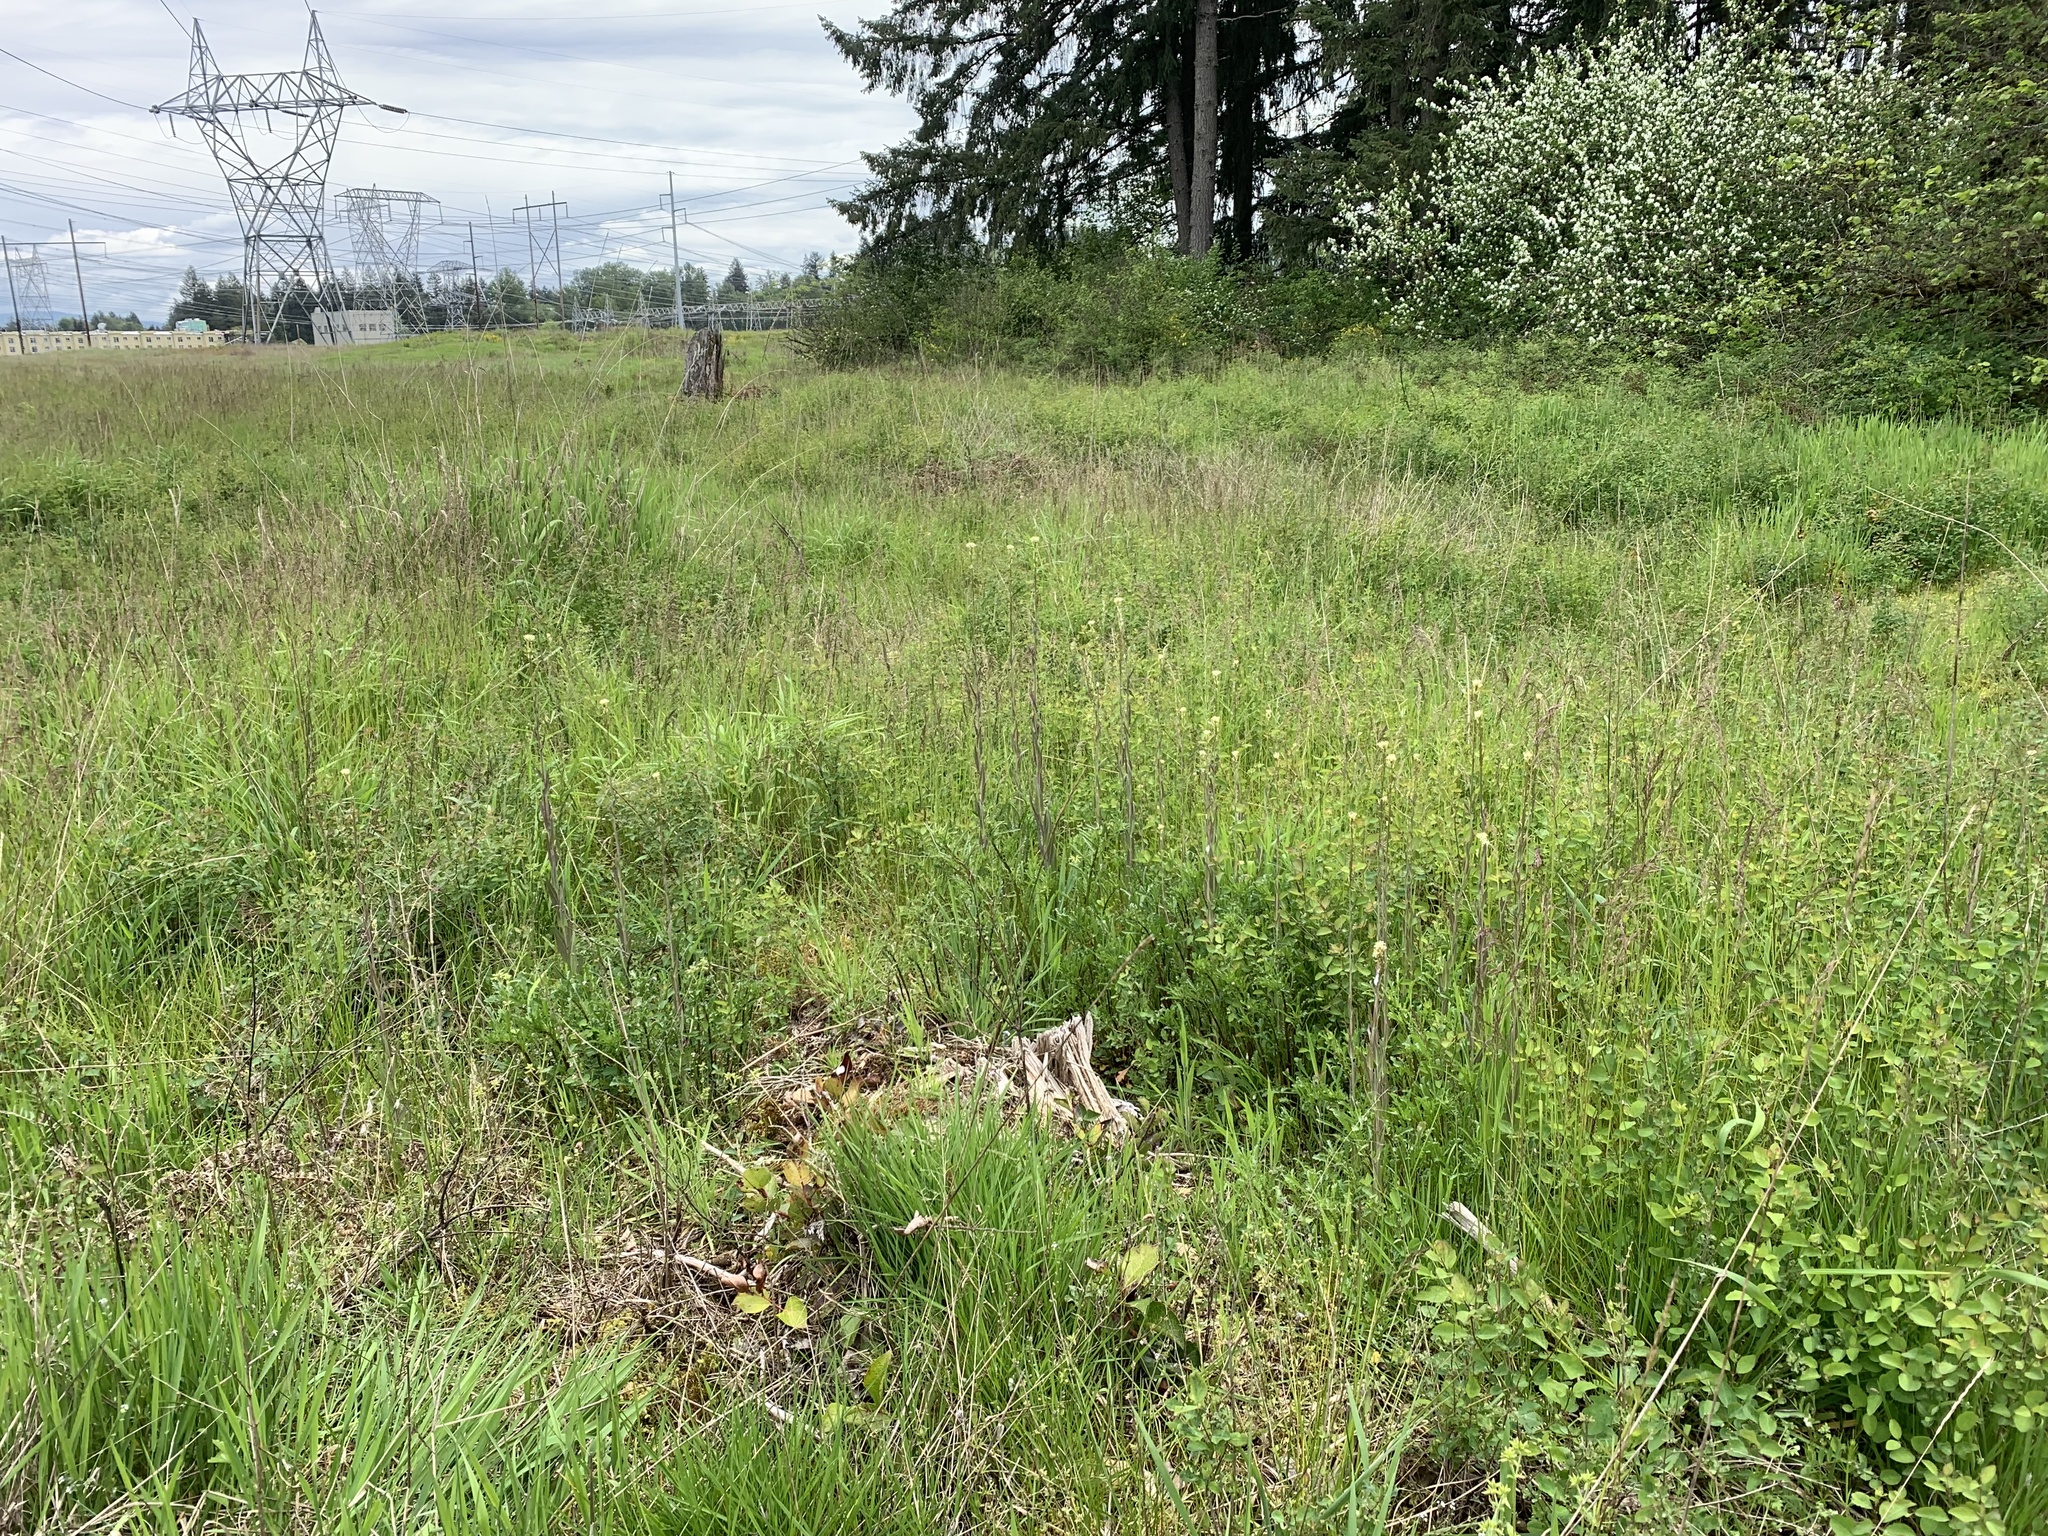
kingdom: Plantae
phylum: Tracheophyta
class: Magnoliopsida
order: Brassicales
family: Brassicaceae
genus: Turritis
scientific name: Turritis glabra
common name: Tower rockcress
